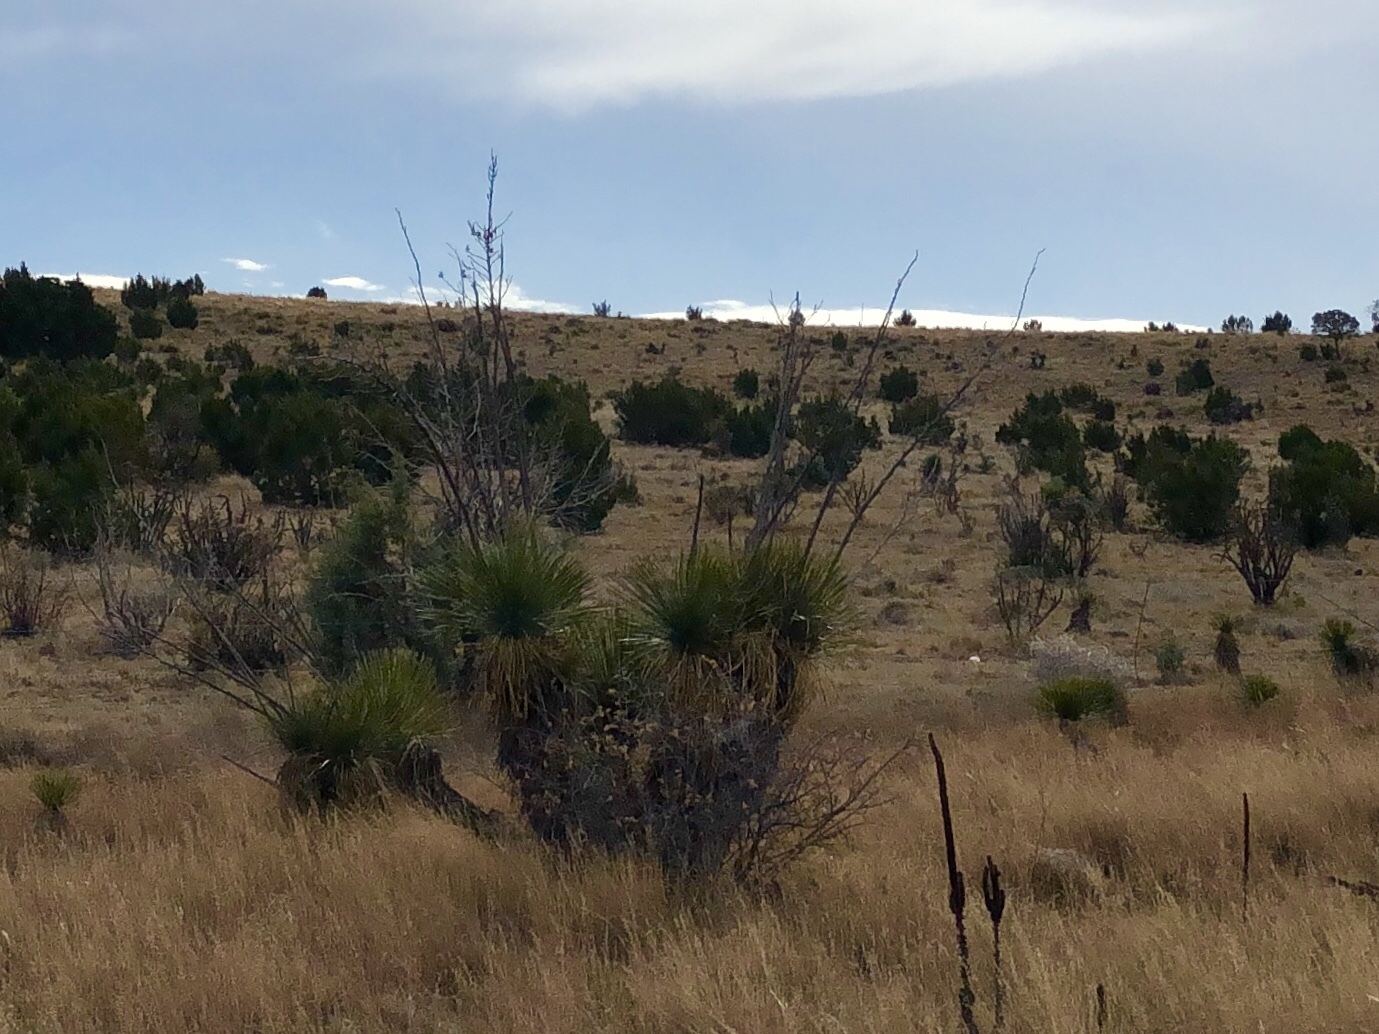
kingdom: Plantae
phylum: Tracheophyta
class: Liliopsida
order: Asparagales
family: Asparagaceae
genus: Yucca
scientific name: Yucca elata
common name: Palmella
